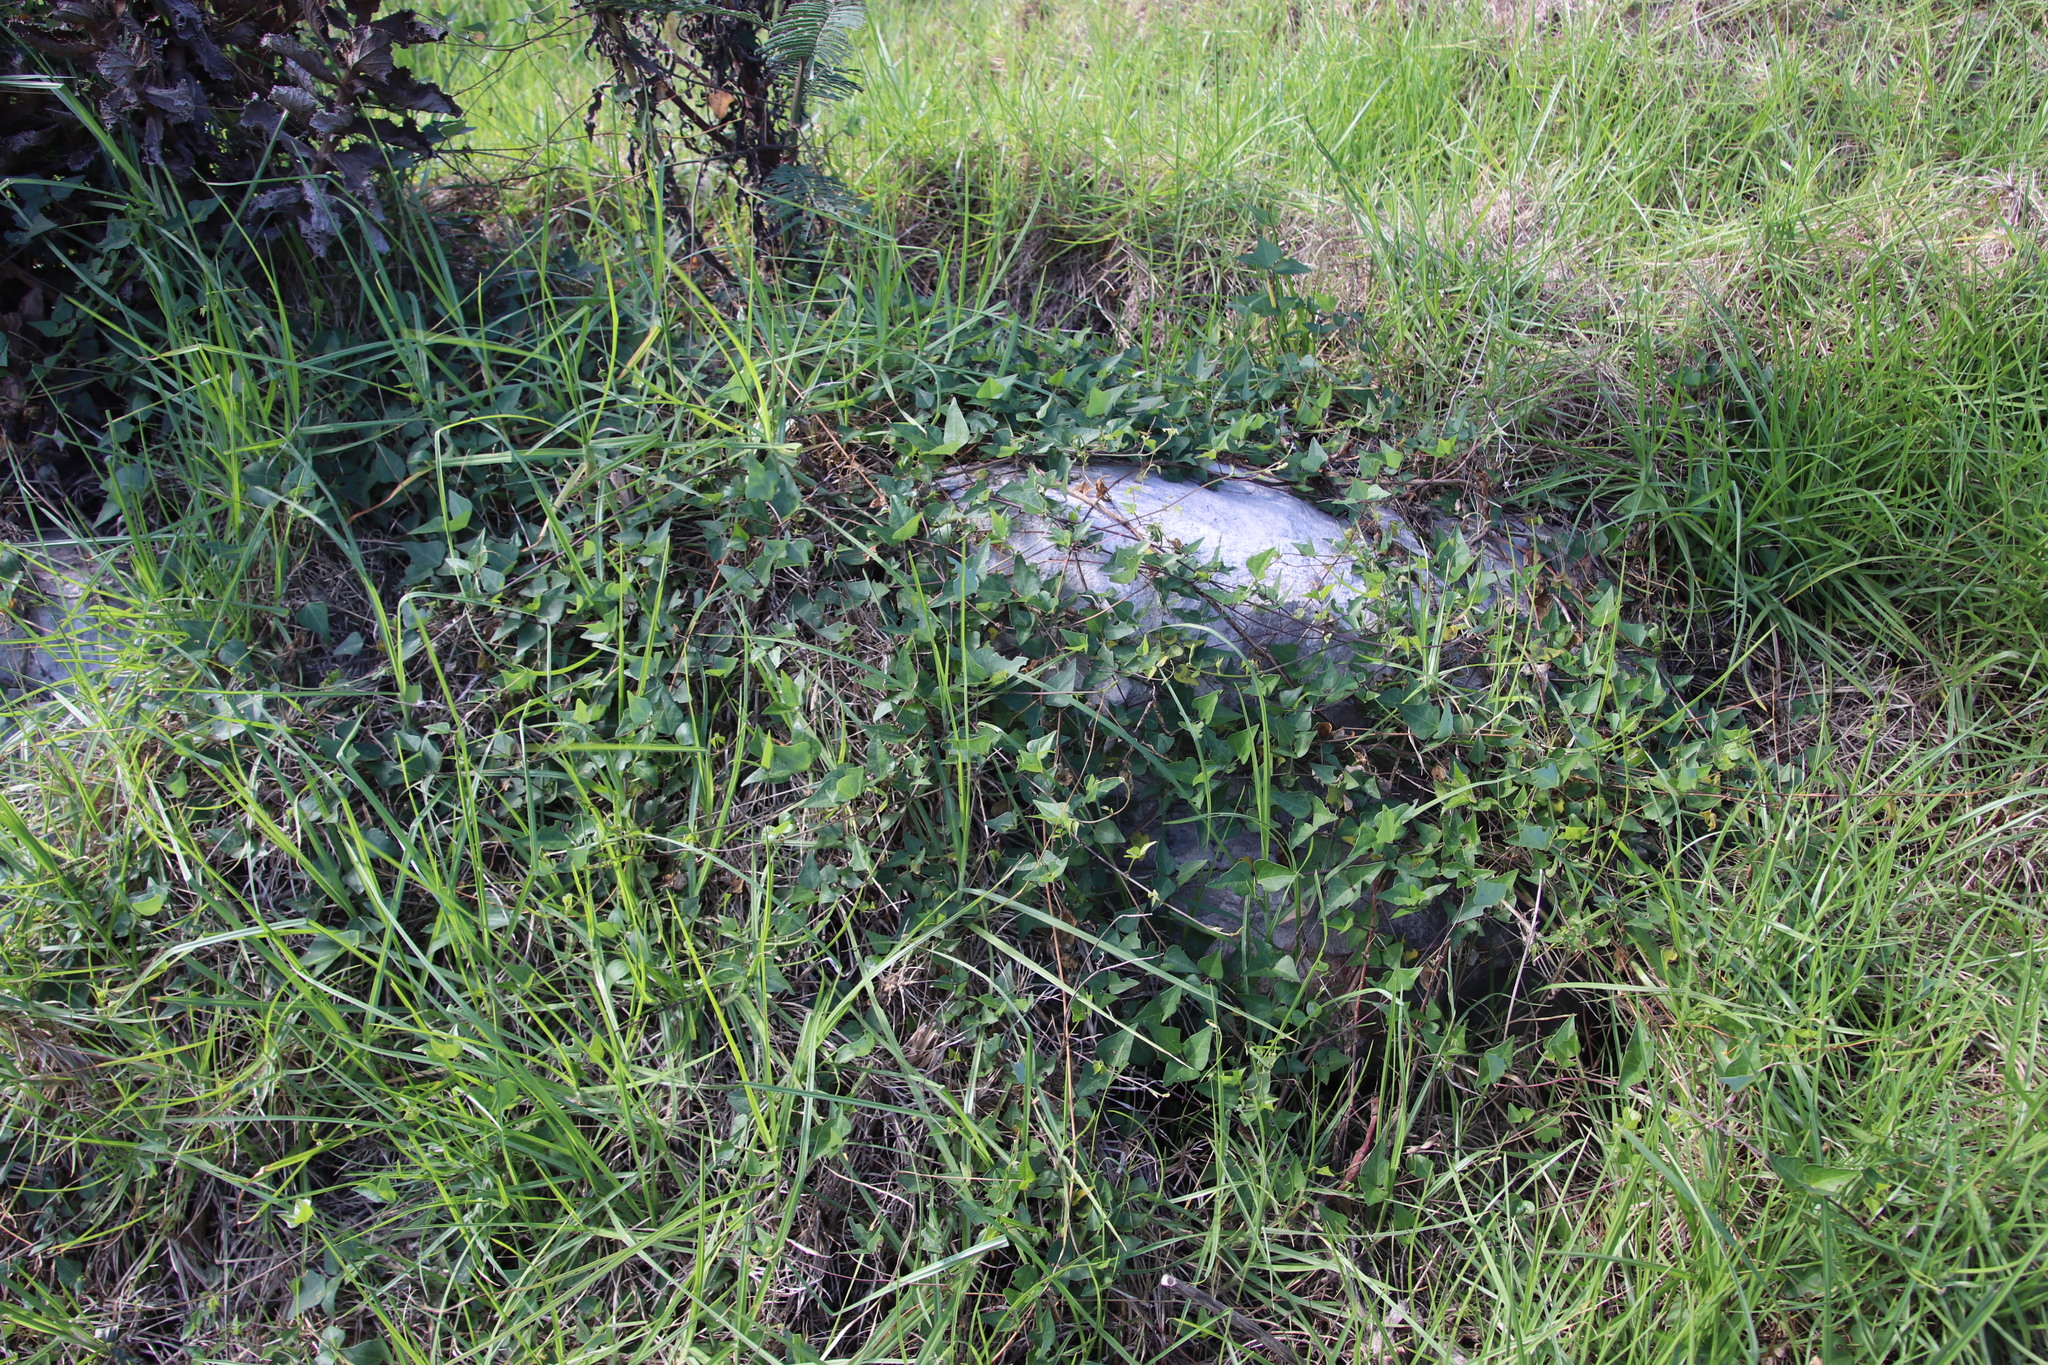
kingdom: Plantae
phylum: Tracheophyta
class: Magnoliopsida
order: Fabales
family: Fabaceae
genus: Dipogon
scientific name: Dipogon lignosus
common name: Okie bean
